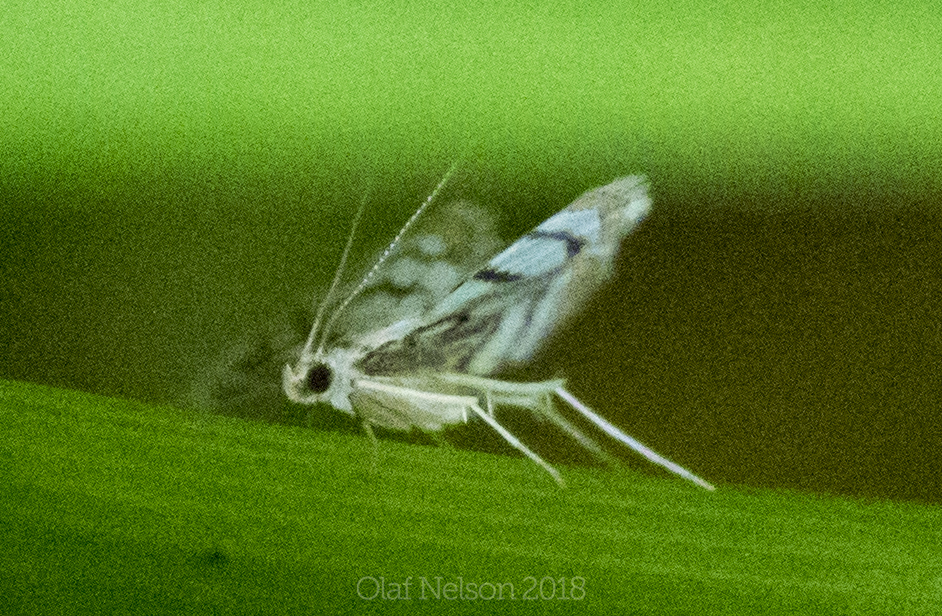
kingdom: Animalia
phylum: Arthropoda
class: Insecta
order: Lepidoptera
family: Crambidae
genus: Parapoynx
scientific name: Parapoynx badiusalis
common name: Chestnut-marked pondweed moth
